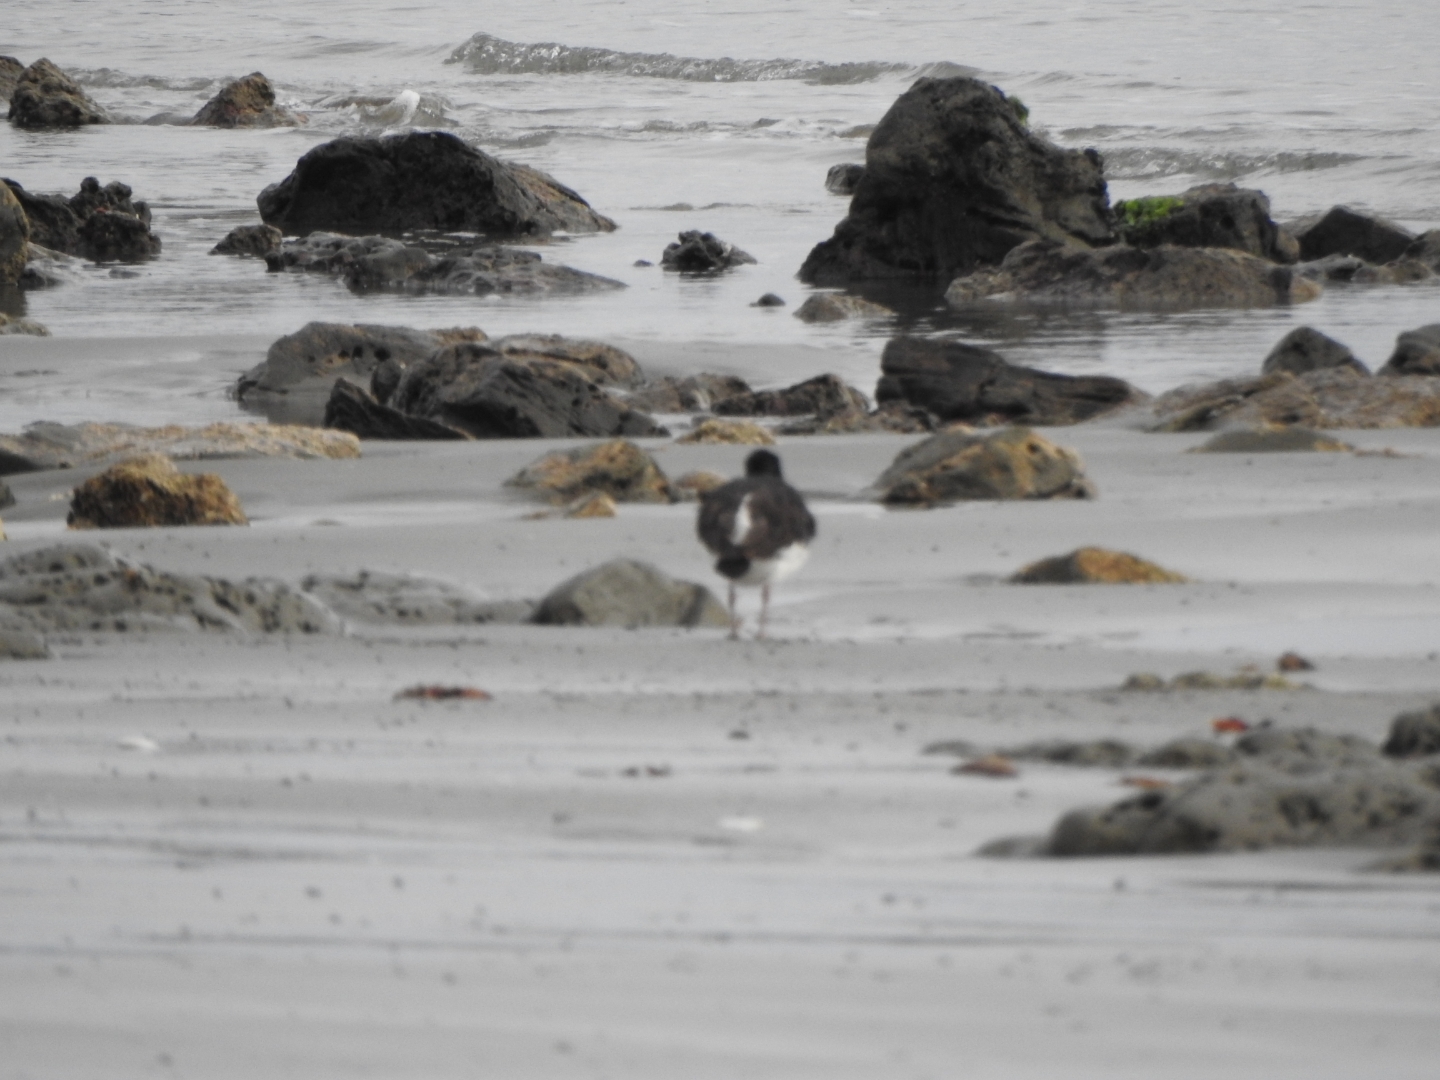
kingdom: Animalia
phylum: Chordata
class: Aves
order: Charadriiformes
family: Haematopodidae
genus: Haematopus
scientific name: Haematopus unicolor
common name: Variable oystercatcher
